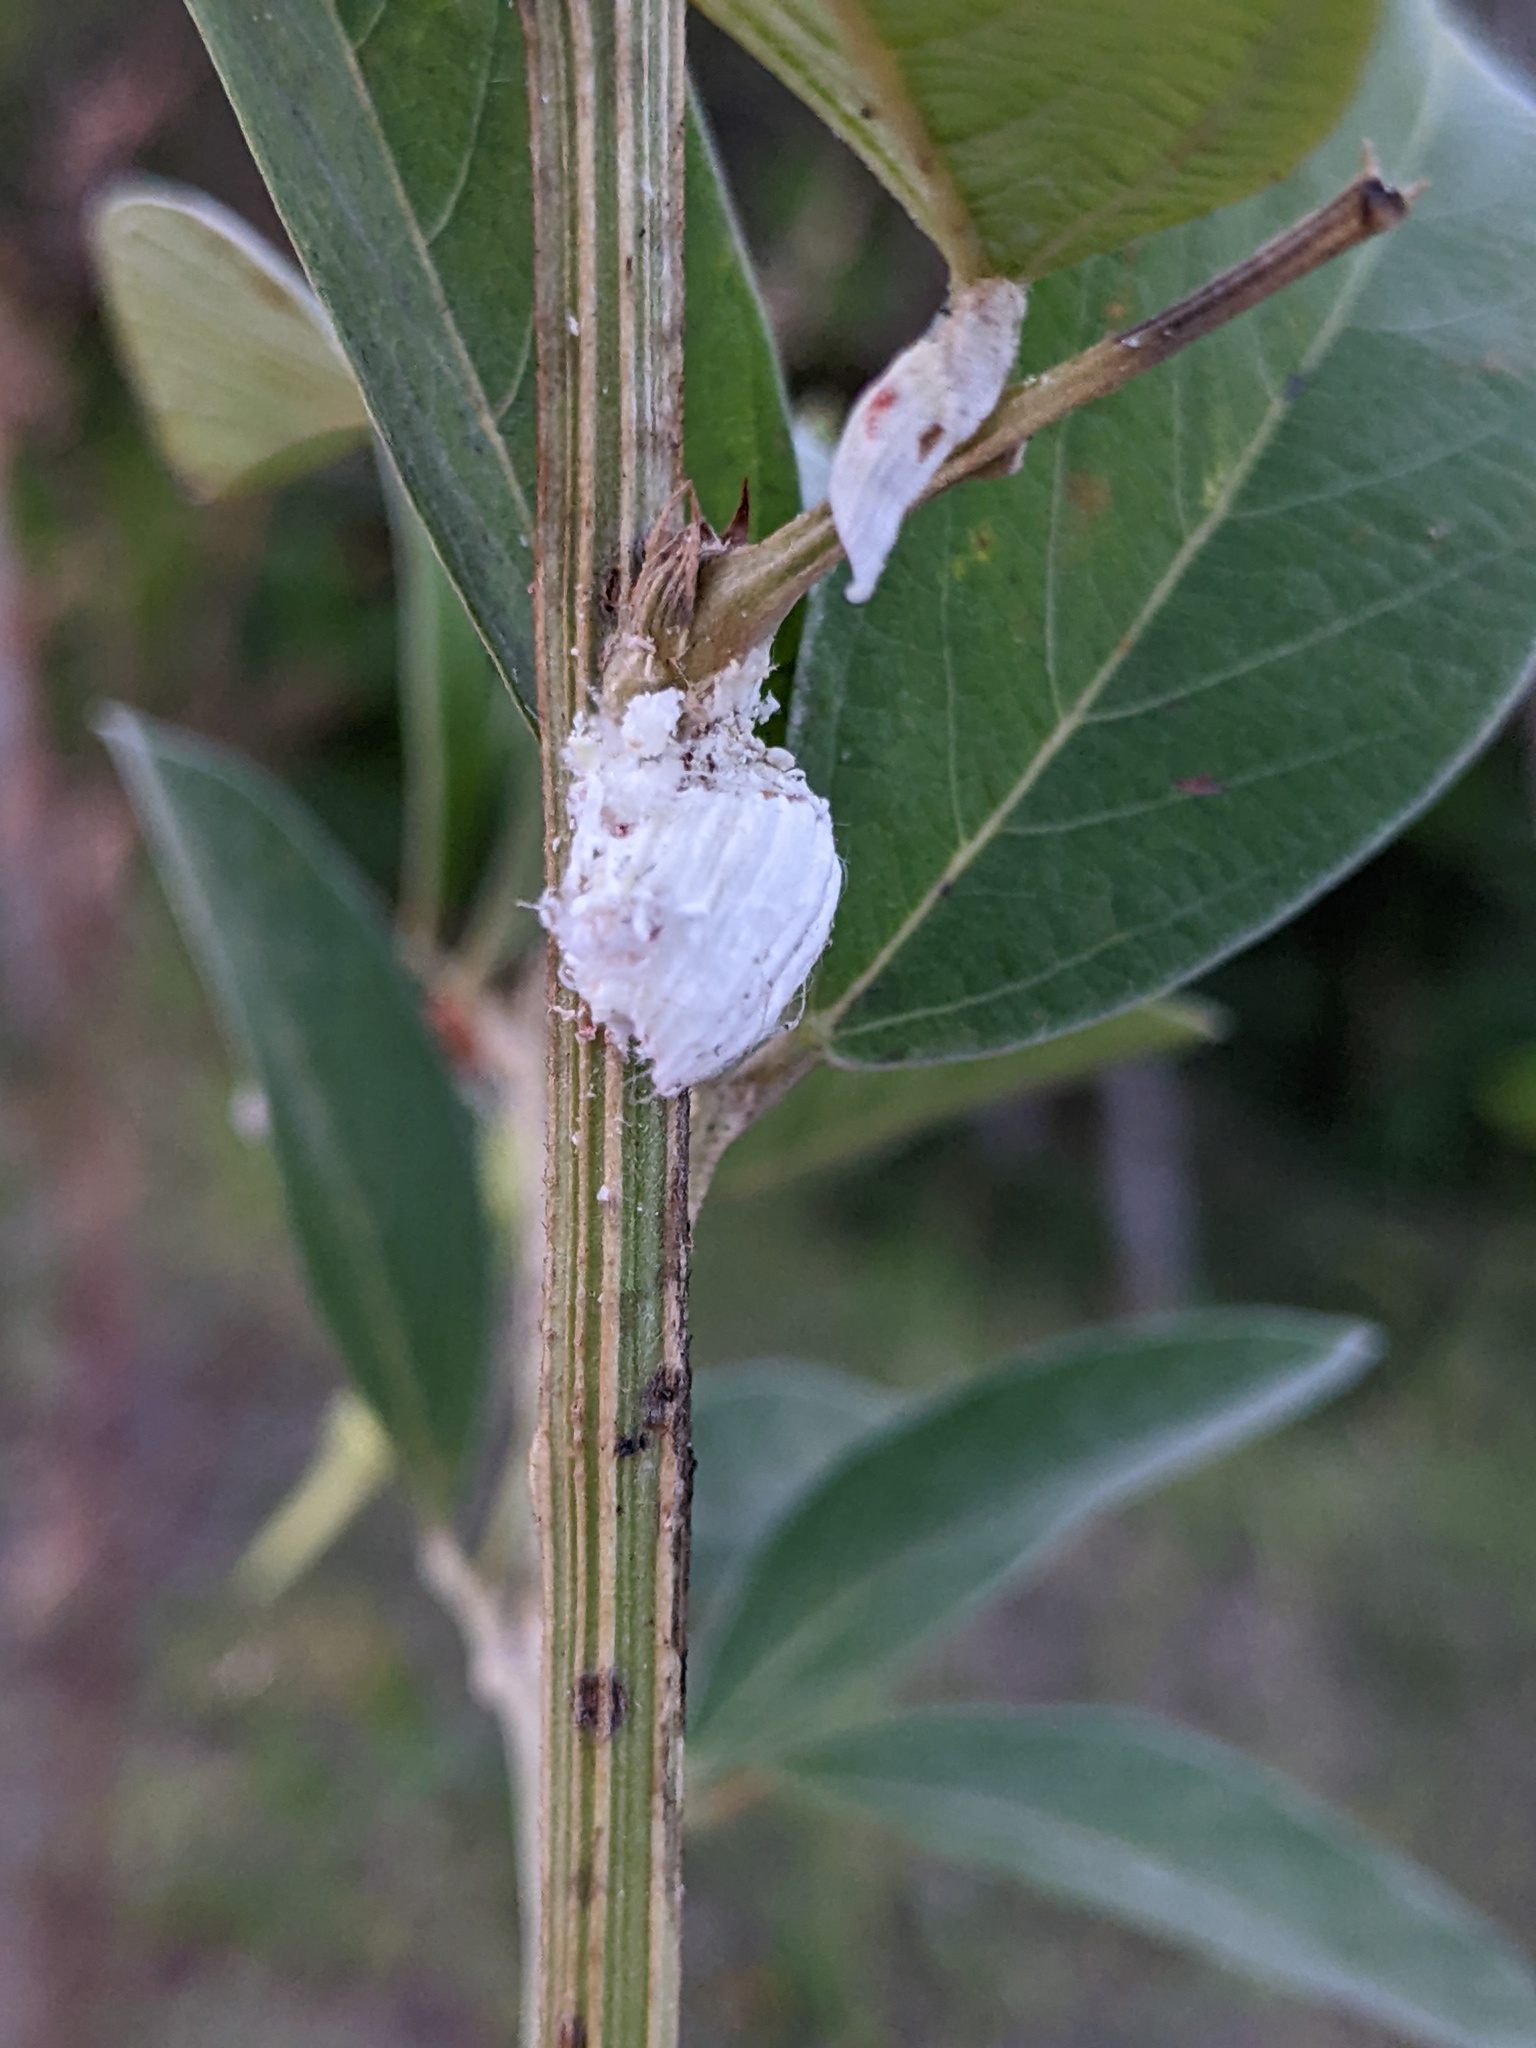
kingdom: Animalia
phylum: Arthropoda
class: Insecta
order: Hemiptera
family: Margarodidae
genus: Icerya
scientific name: Icerya purchasi
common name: Cottony cushion scale
